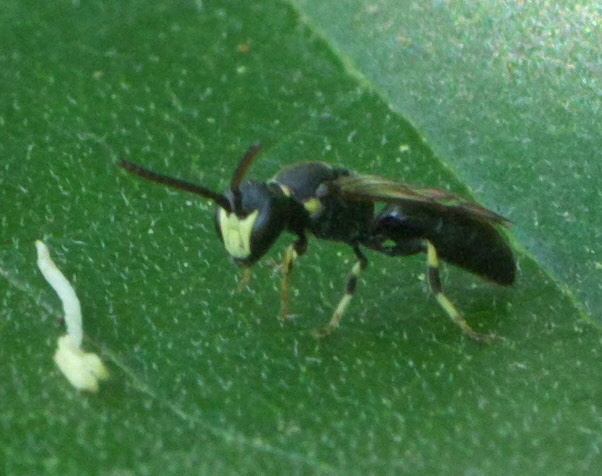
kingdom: Animalia
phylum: Arthropoda
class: Insecta
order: Hymenoptera
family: Colletidae
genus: Hylaeus
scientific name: Hylaeus modestus
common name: Yellow-faced bee
